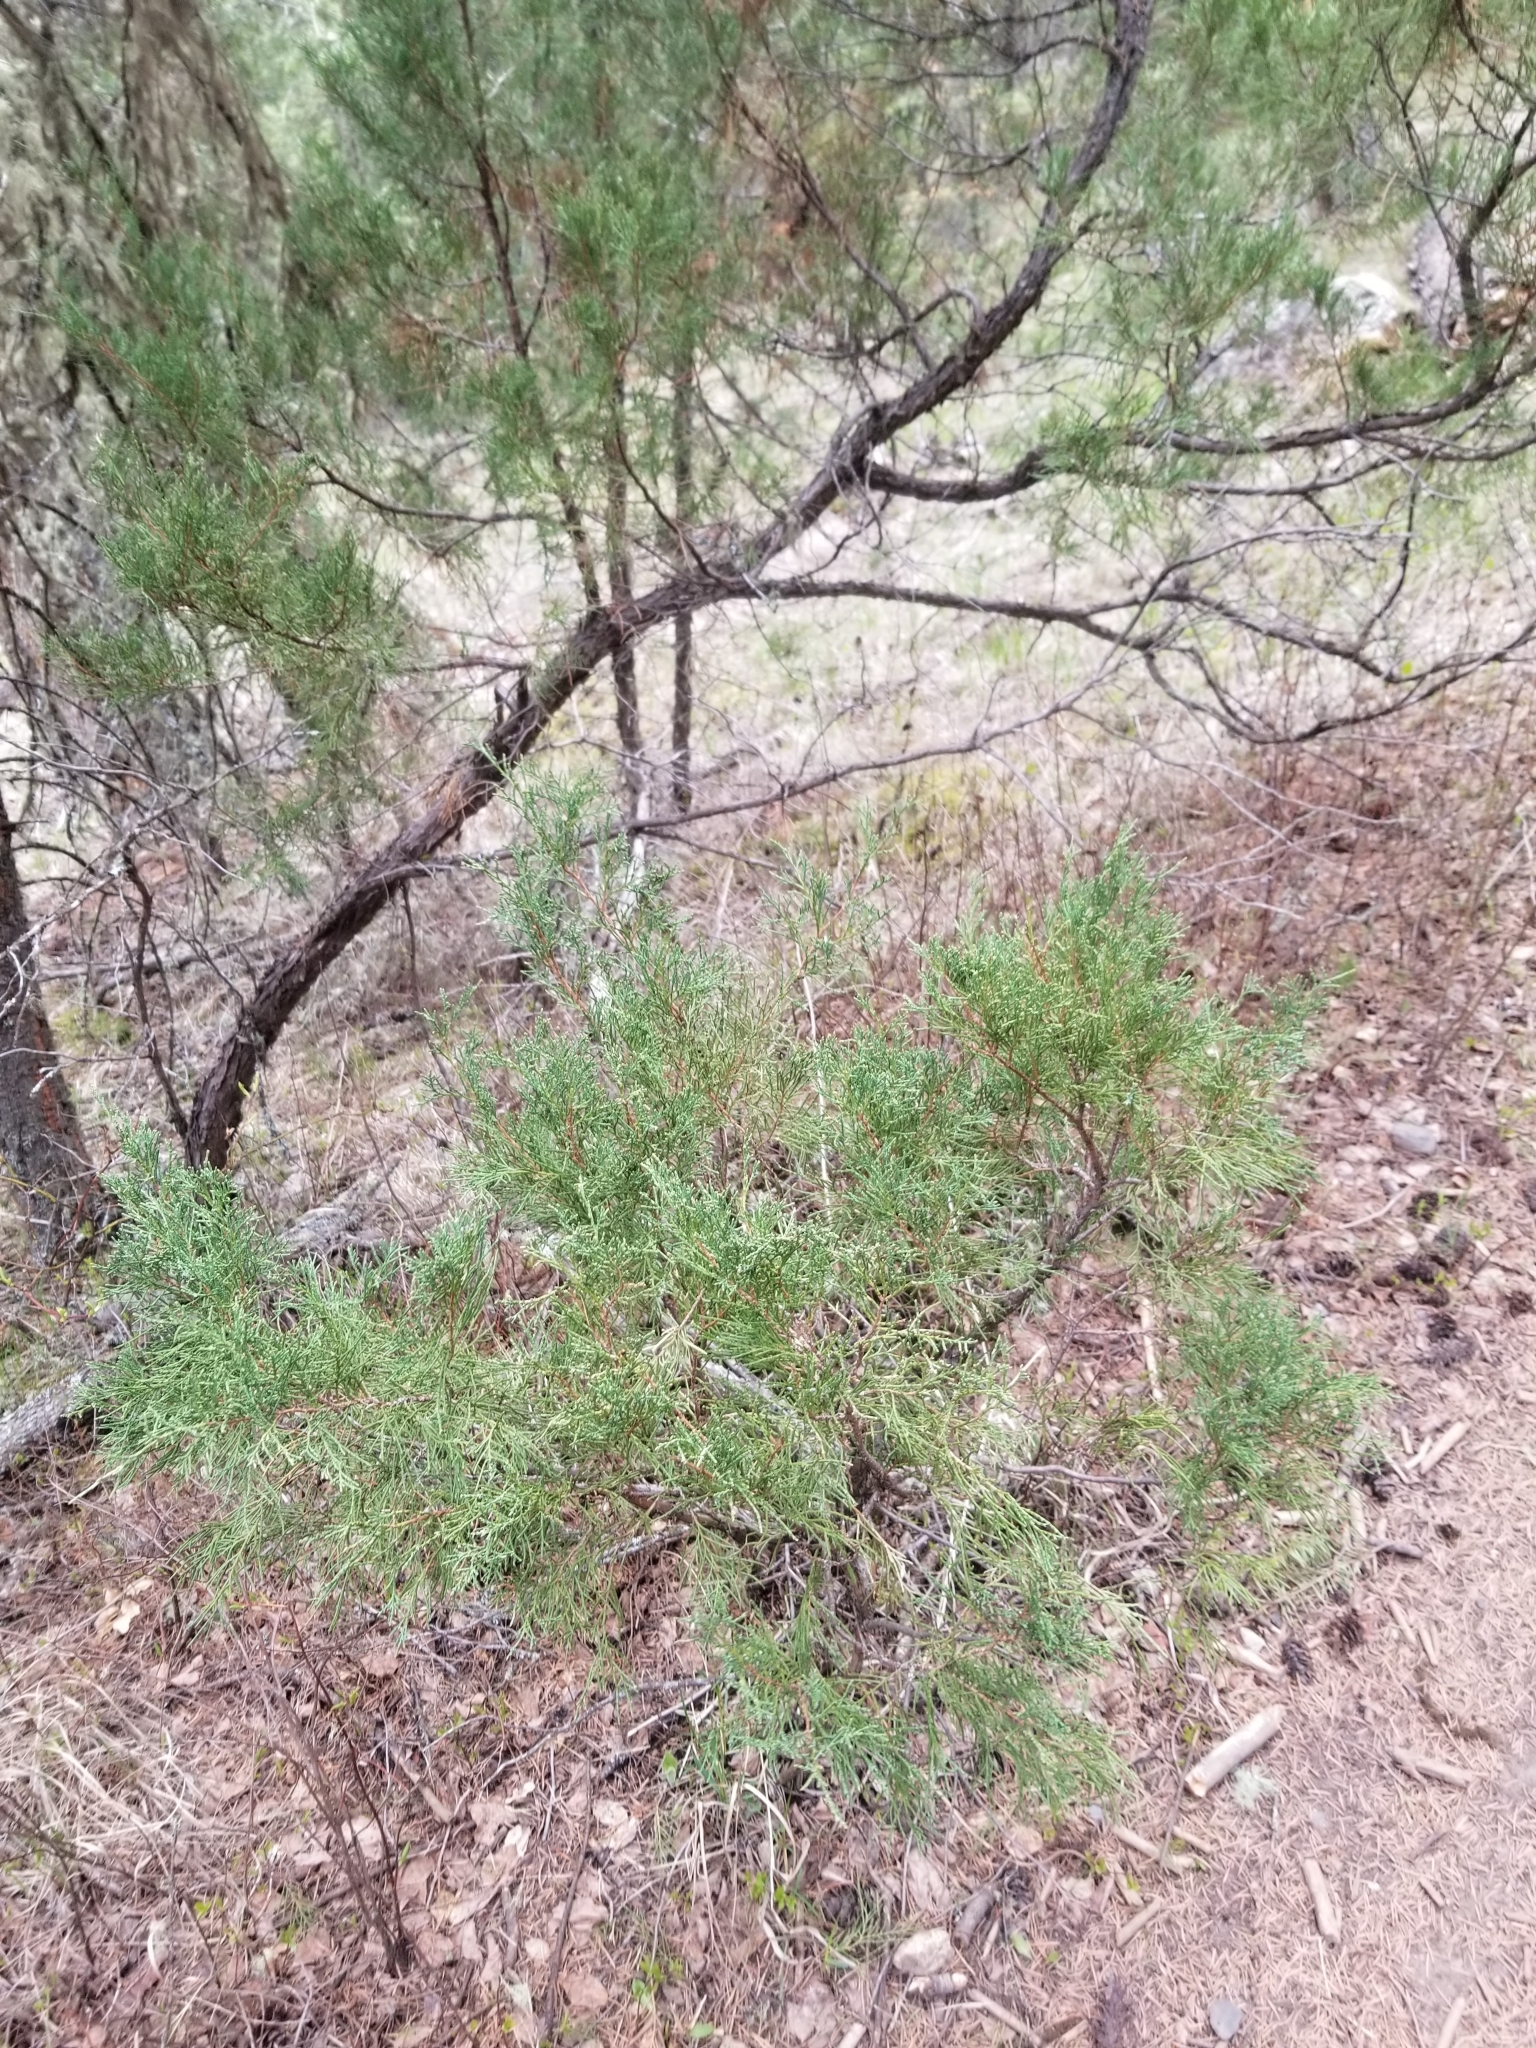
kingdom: Plantae
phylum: Tracheophyta
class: Pinopsida
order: Pinales
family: Cupressaceae
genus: Juniperus
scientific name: Juniperus scopulorum
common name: Rocky mountain juniper
